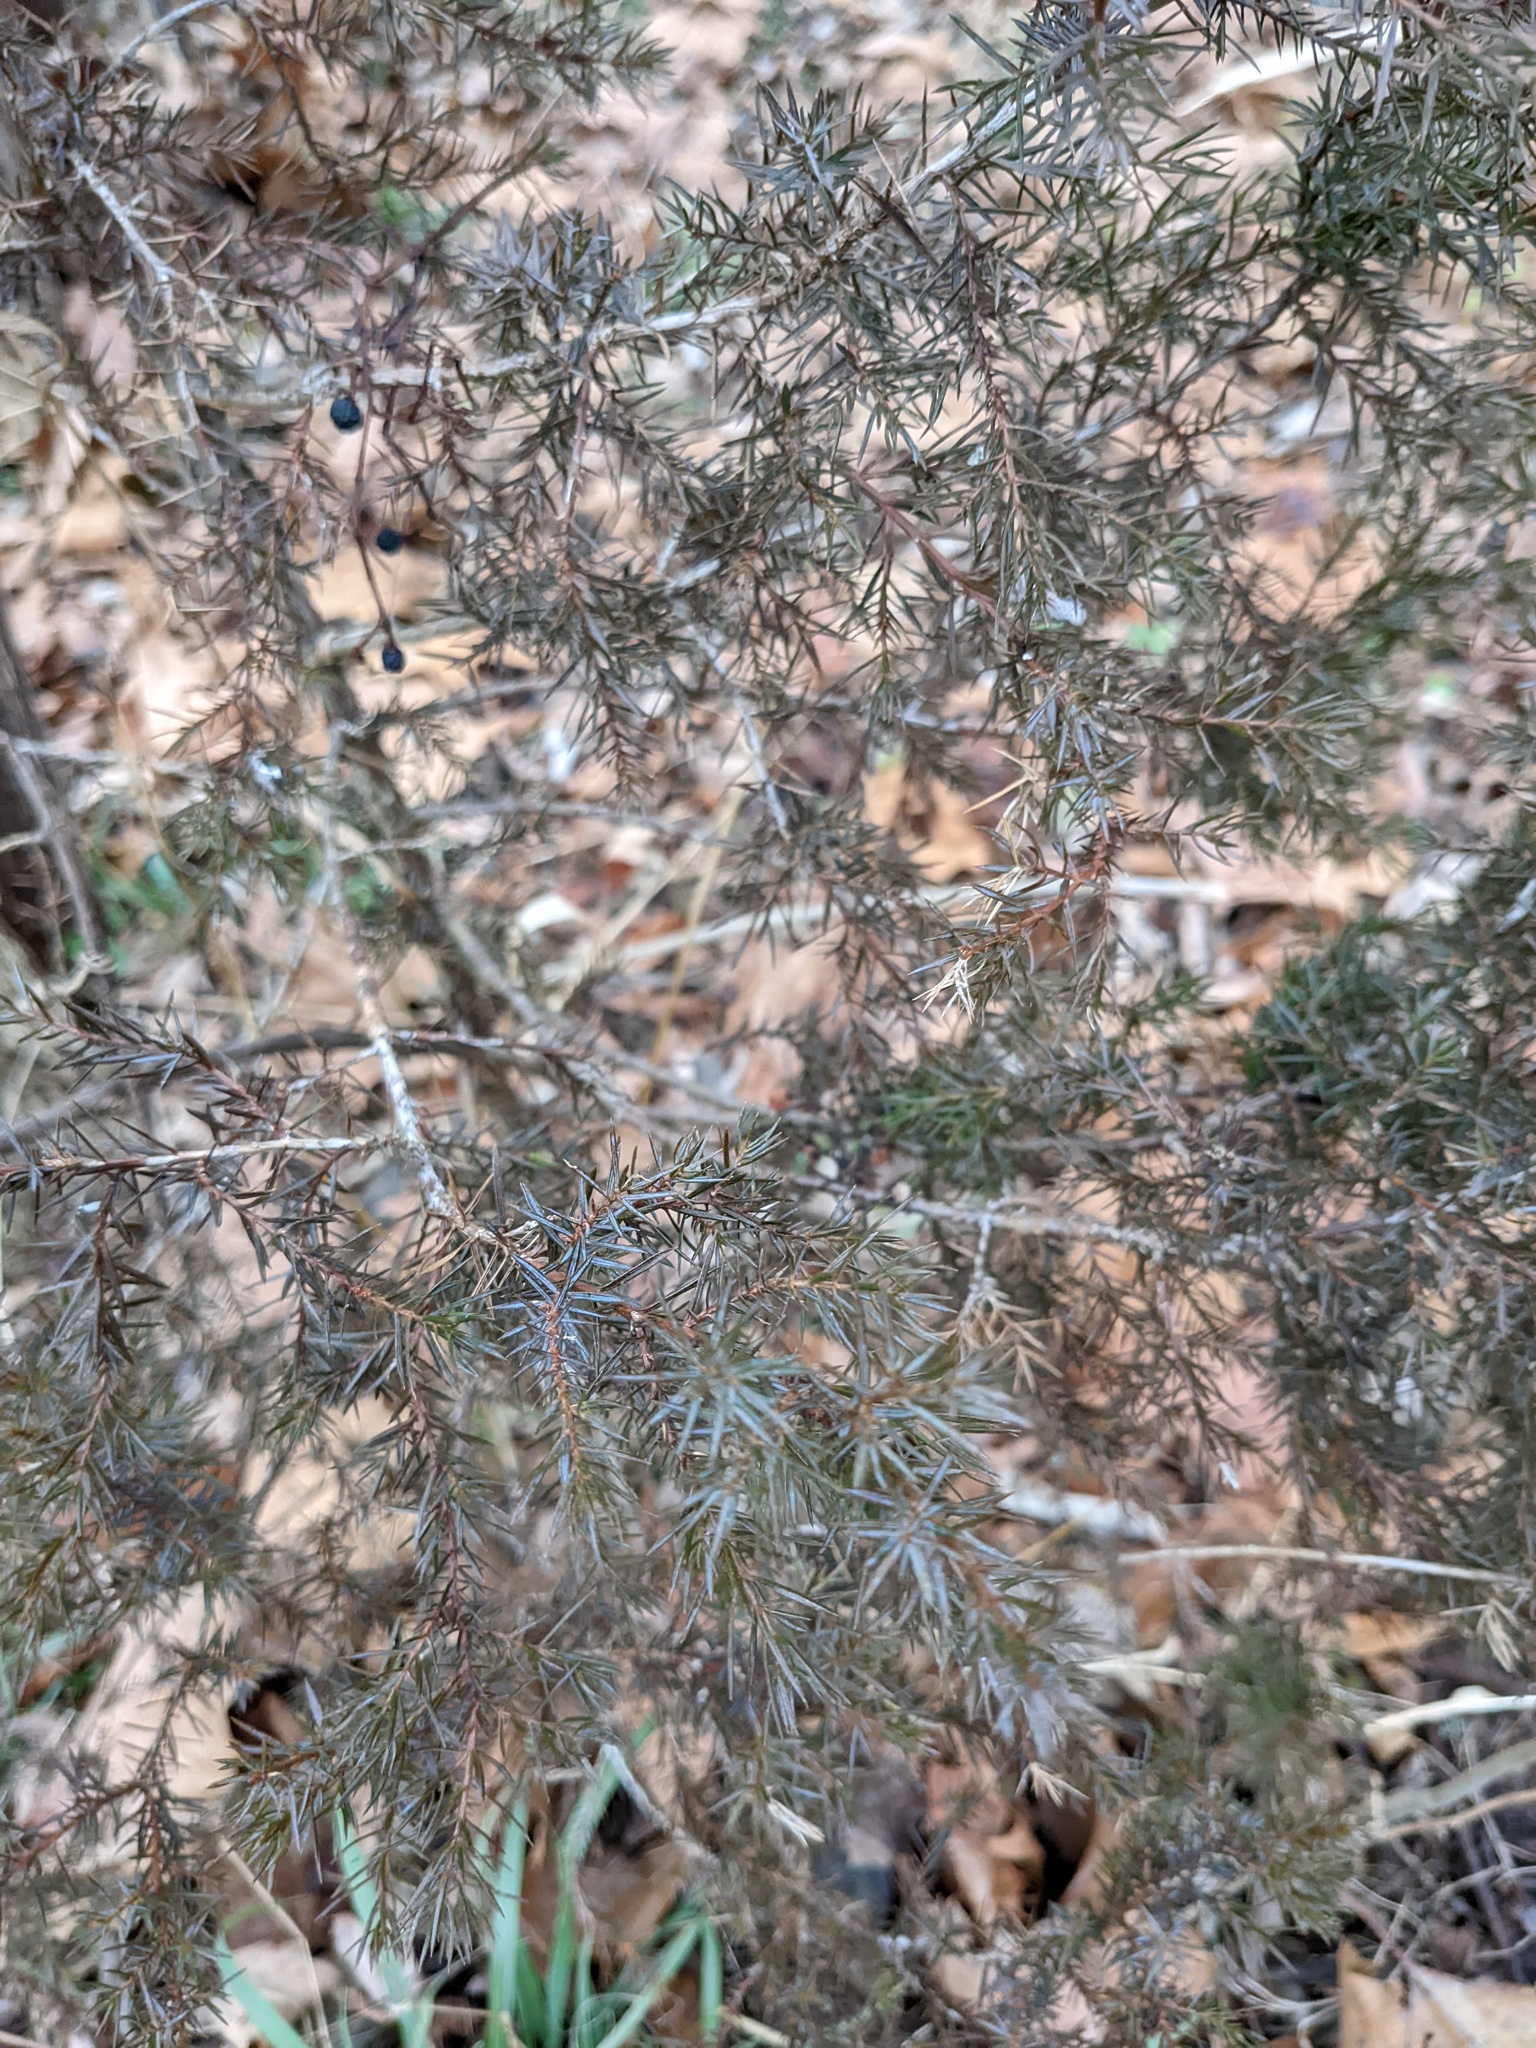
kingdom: Plantae
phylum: Tracheophyta
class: Pinopsida
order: Pinales
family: Cupressaceae
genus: Juniperus
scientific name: Juniperus virginiana
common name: Red juniper
